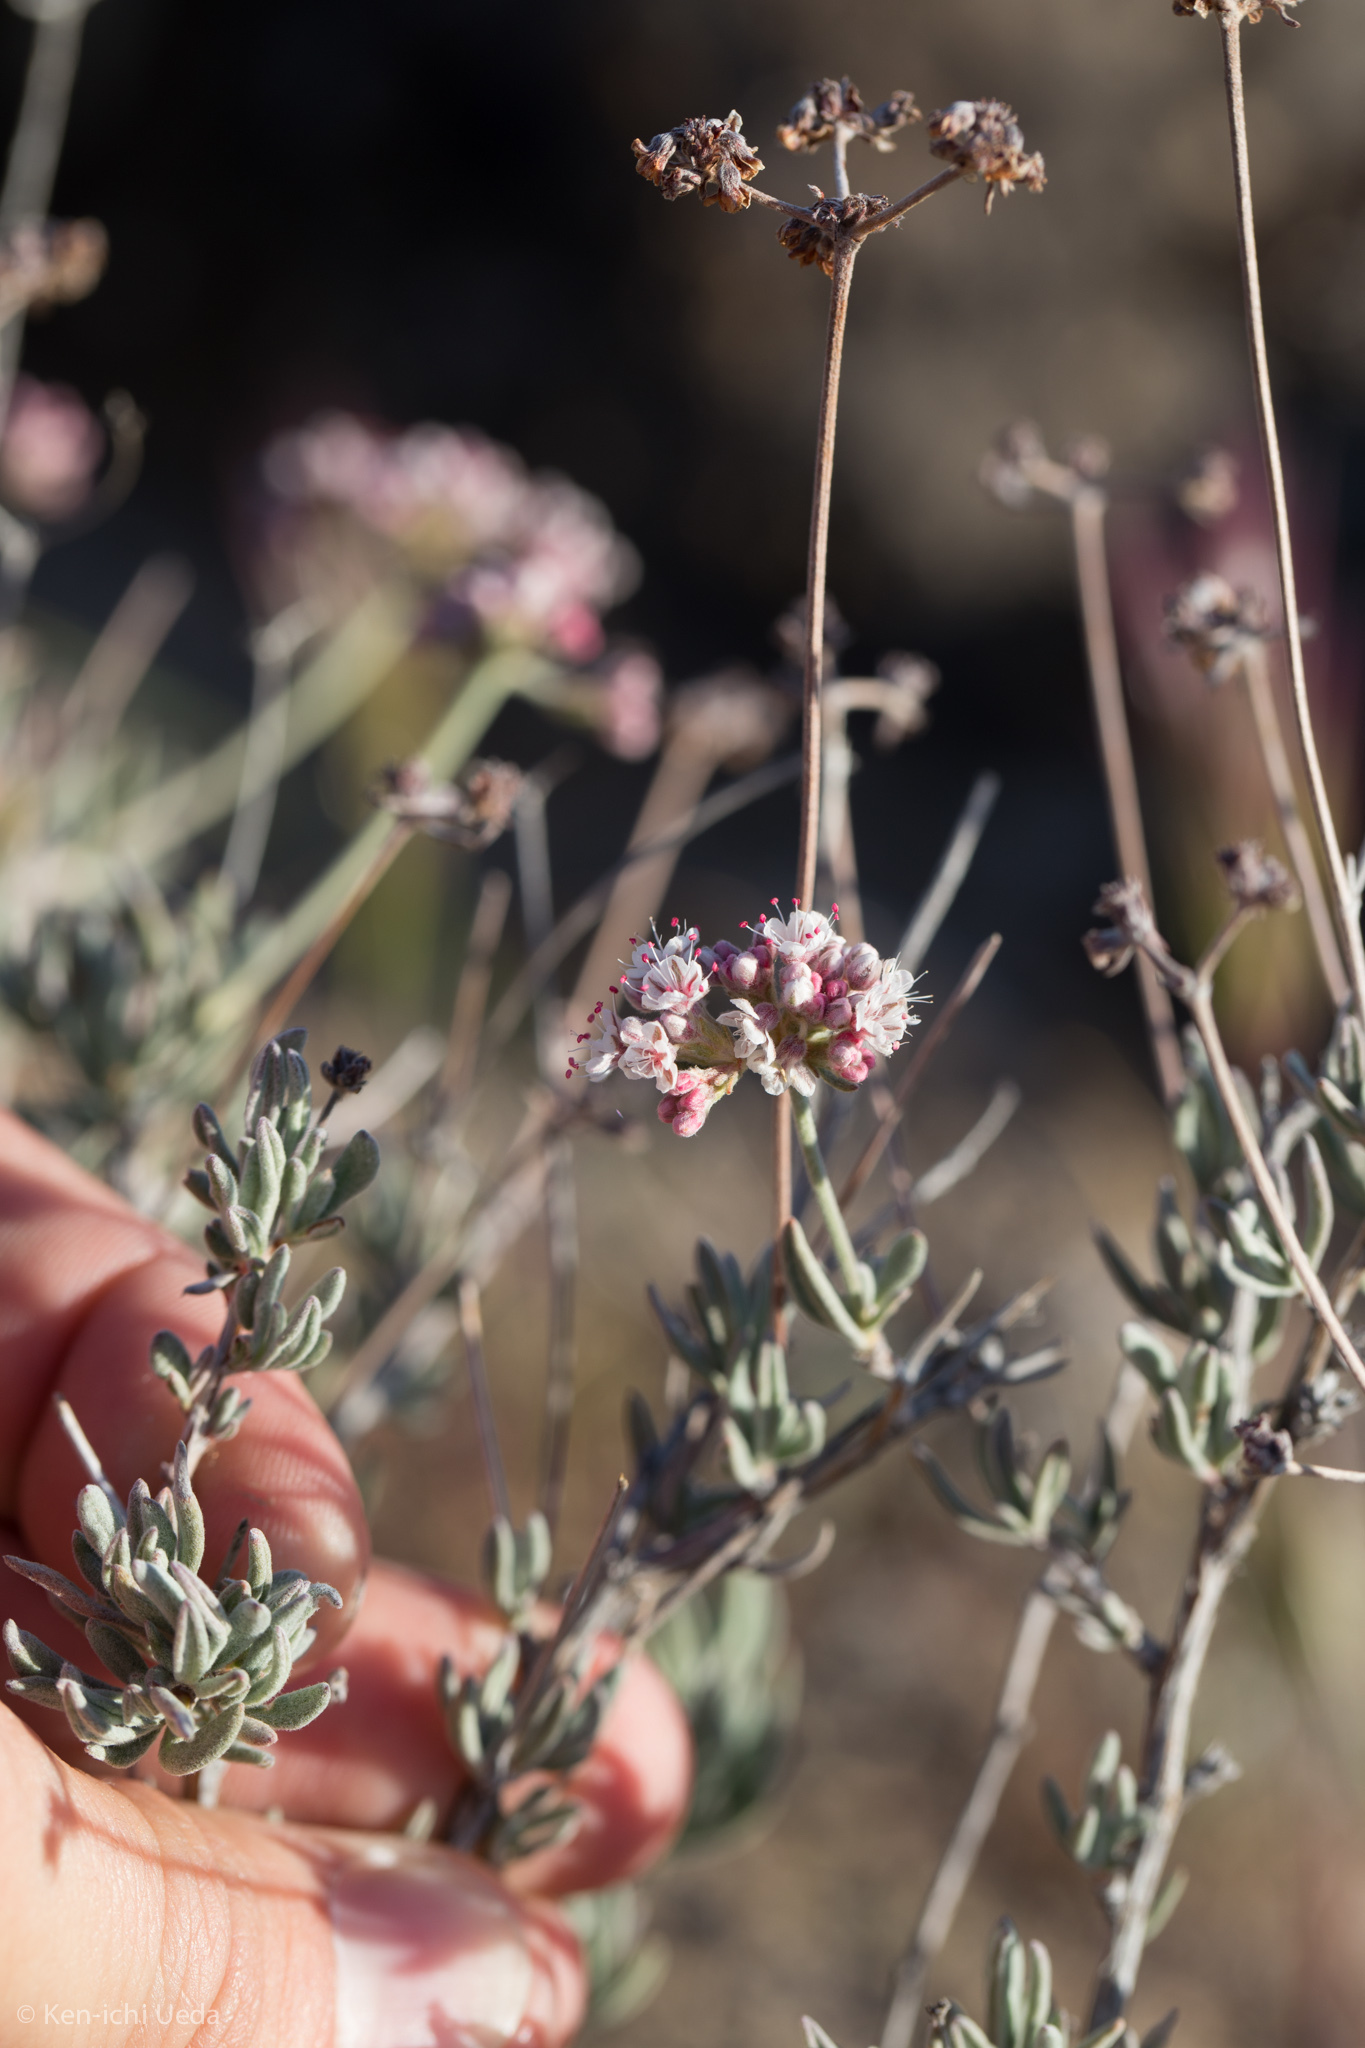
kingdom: Plantae
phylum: Tracheophyta
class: Magnoliopsida
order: Caryophyllales
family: Polygonaceae
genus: Eriogonum
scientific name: Eriogonum fasciculatum
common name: California wild buckwheat
